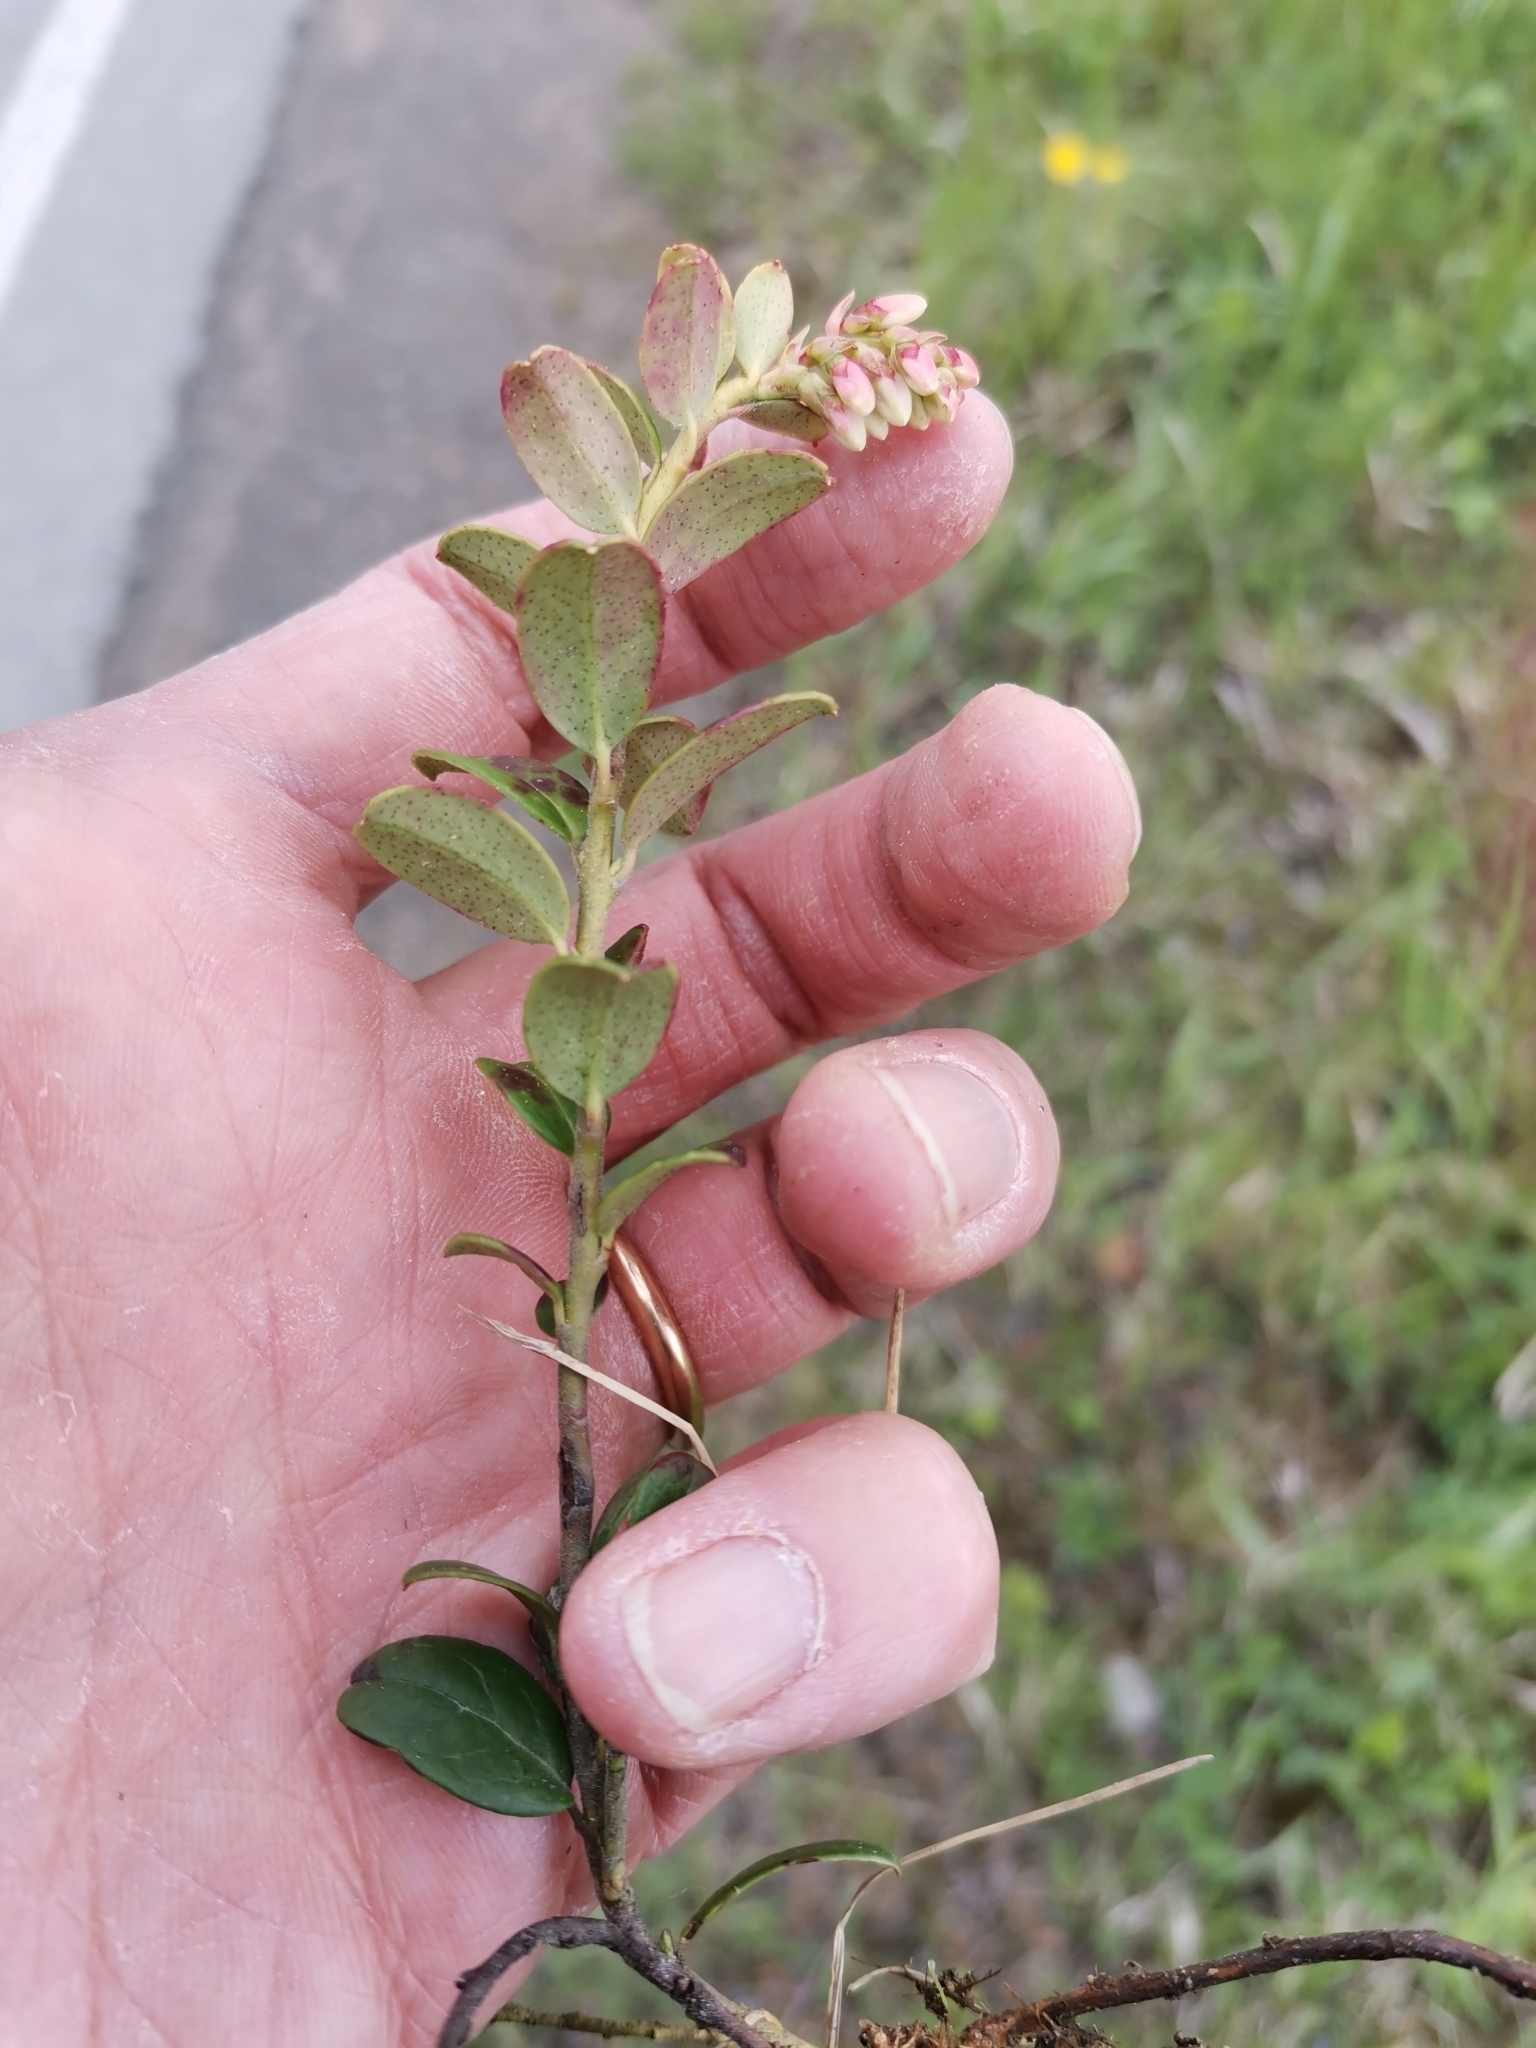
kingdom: Plantae
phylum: Tracheophyta
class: Magnoliopsida
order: Ericales
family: Ericaceae
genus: Vaccinium
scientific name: Vaccinium vitis-idaea
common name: Cowberry
